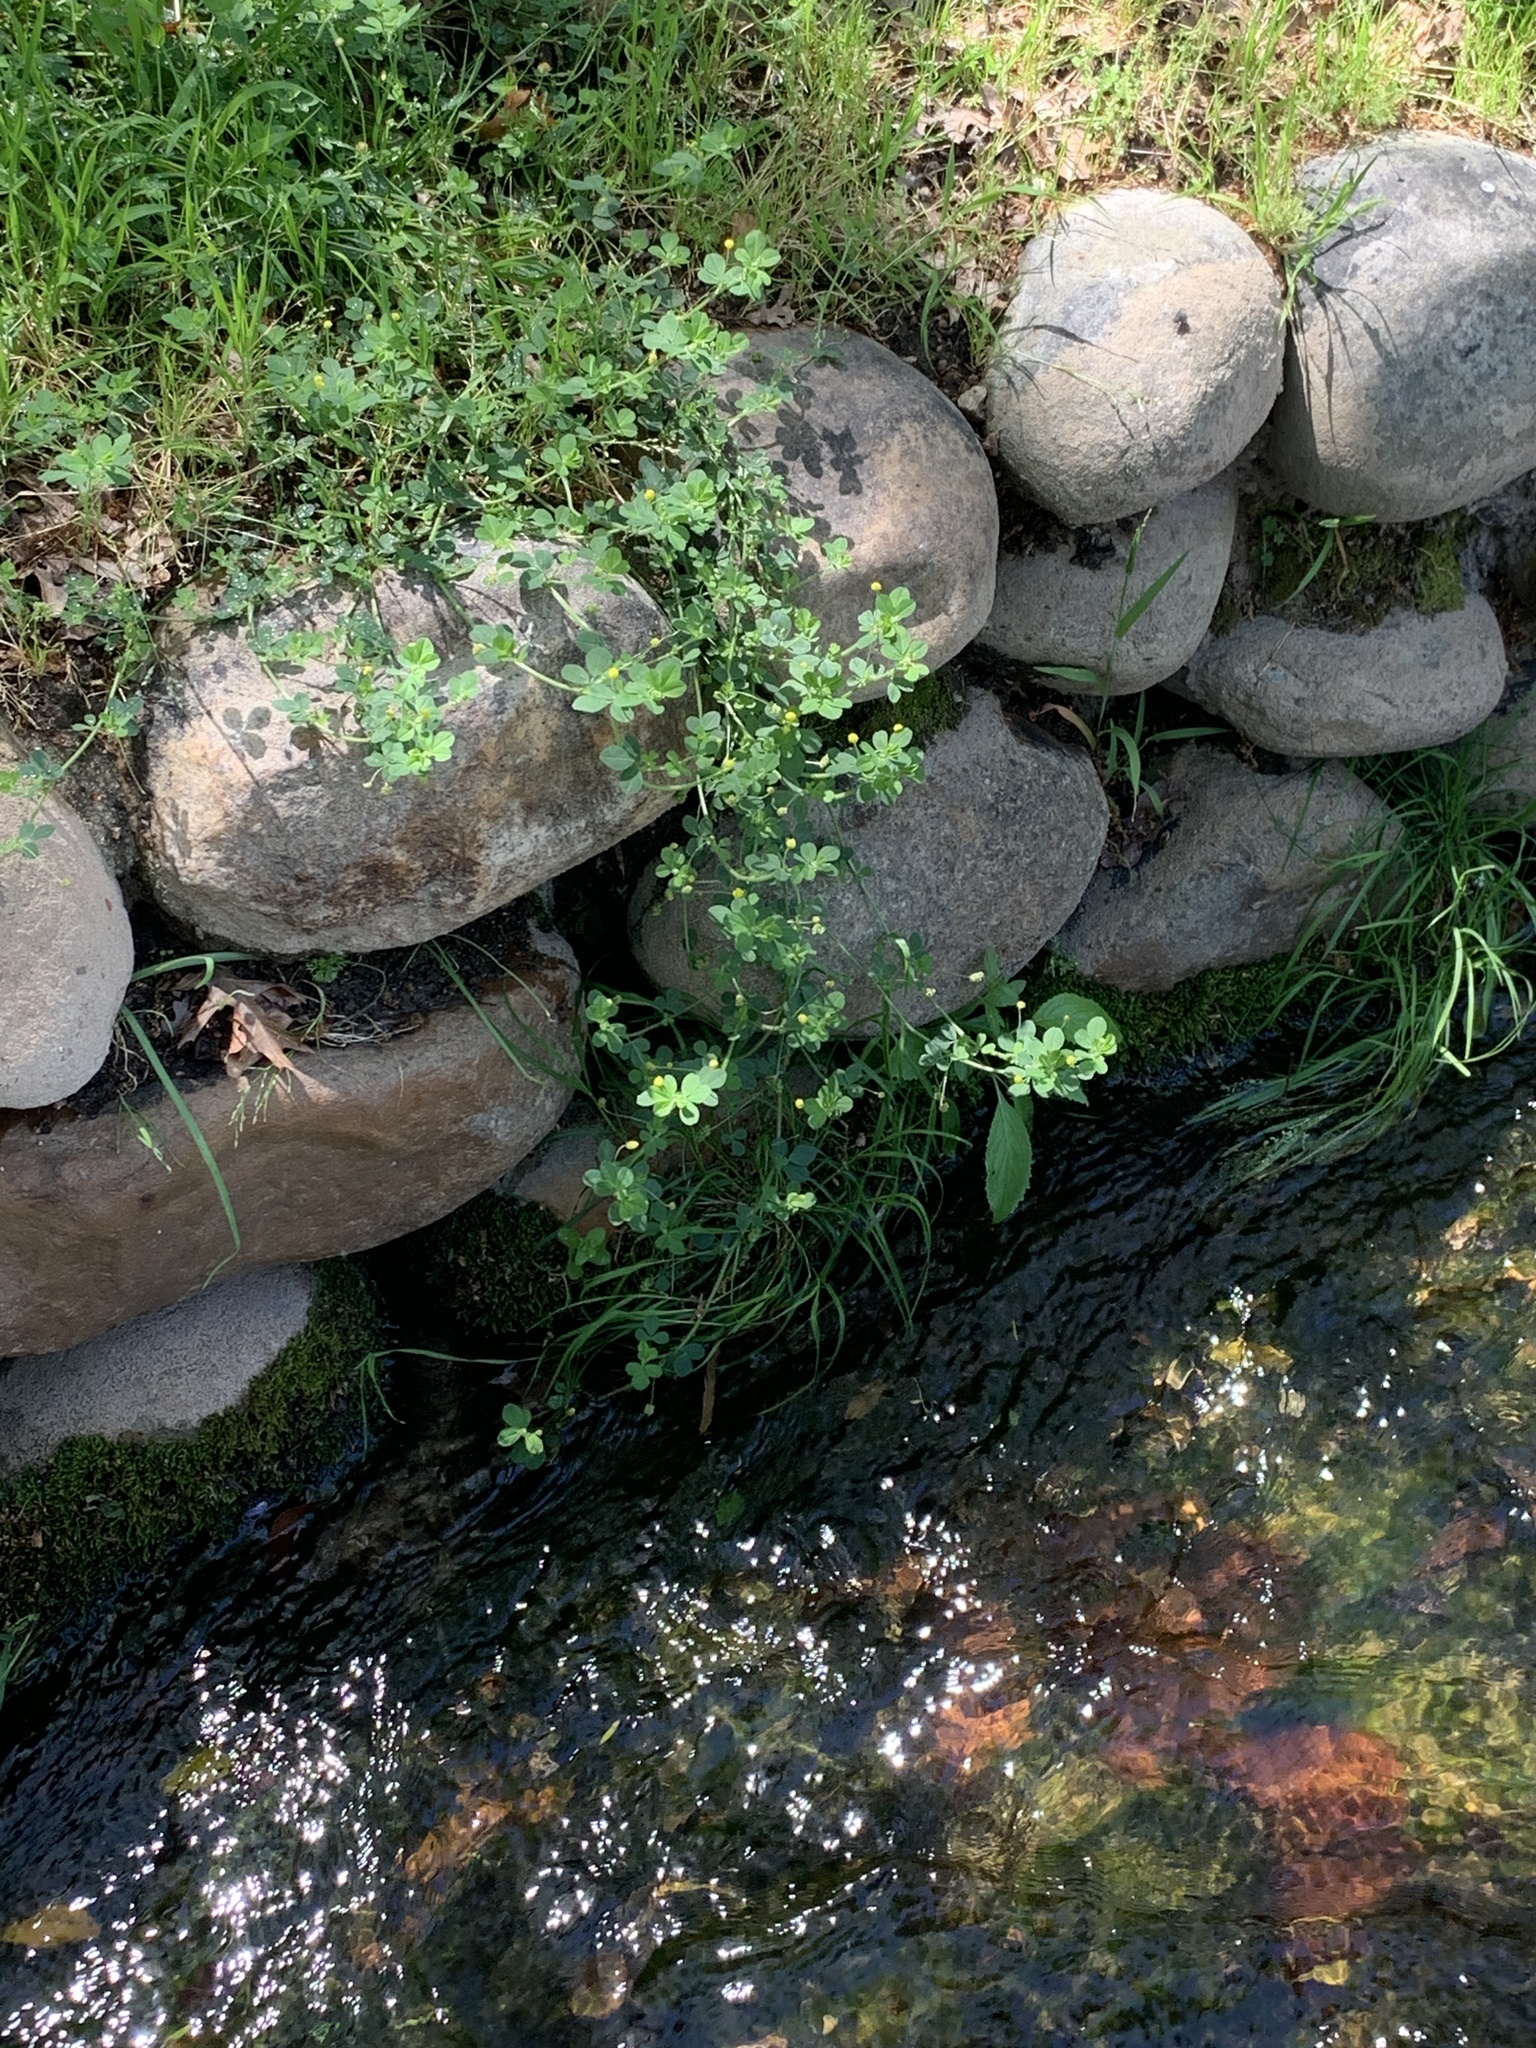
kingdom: Plantae
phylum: Tracheophyta
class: Magnoliopsida
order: Fabales
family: Fabaceae
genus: Medicago
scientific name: Medicago polymorpha
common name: Burclover
